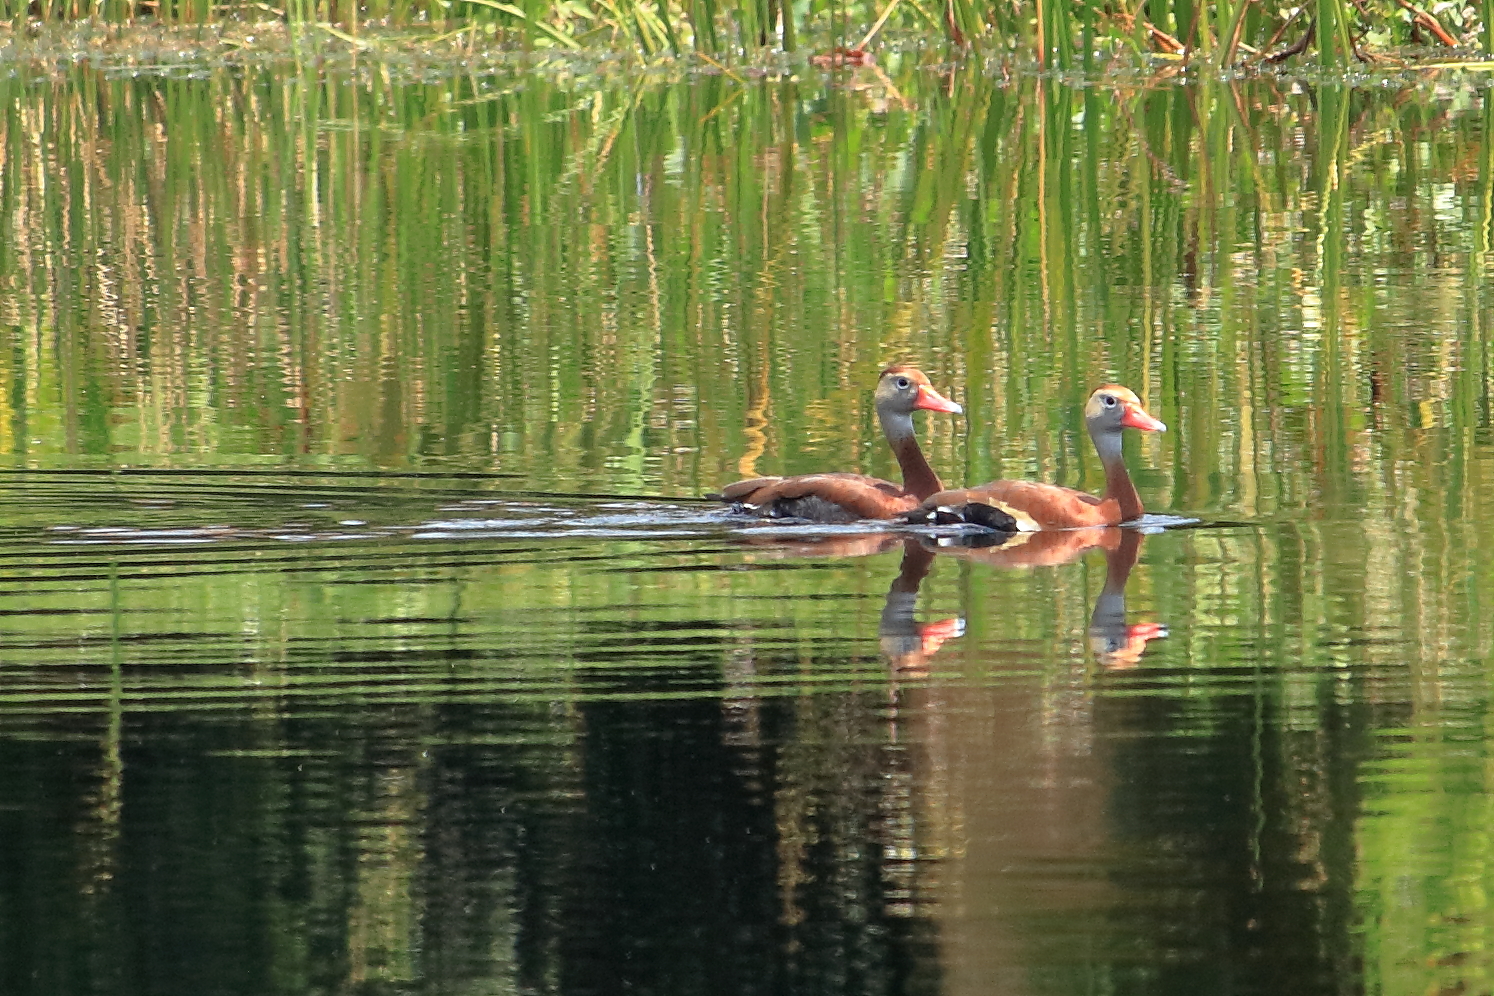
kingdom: Animalia
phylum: Chordata
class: Aves
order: Anseriformes
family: Anatidae
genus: Dendrocygna
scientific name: Dendrocygna autumnalis
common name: Black-bellied whistling duck
